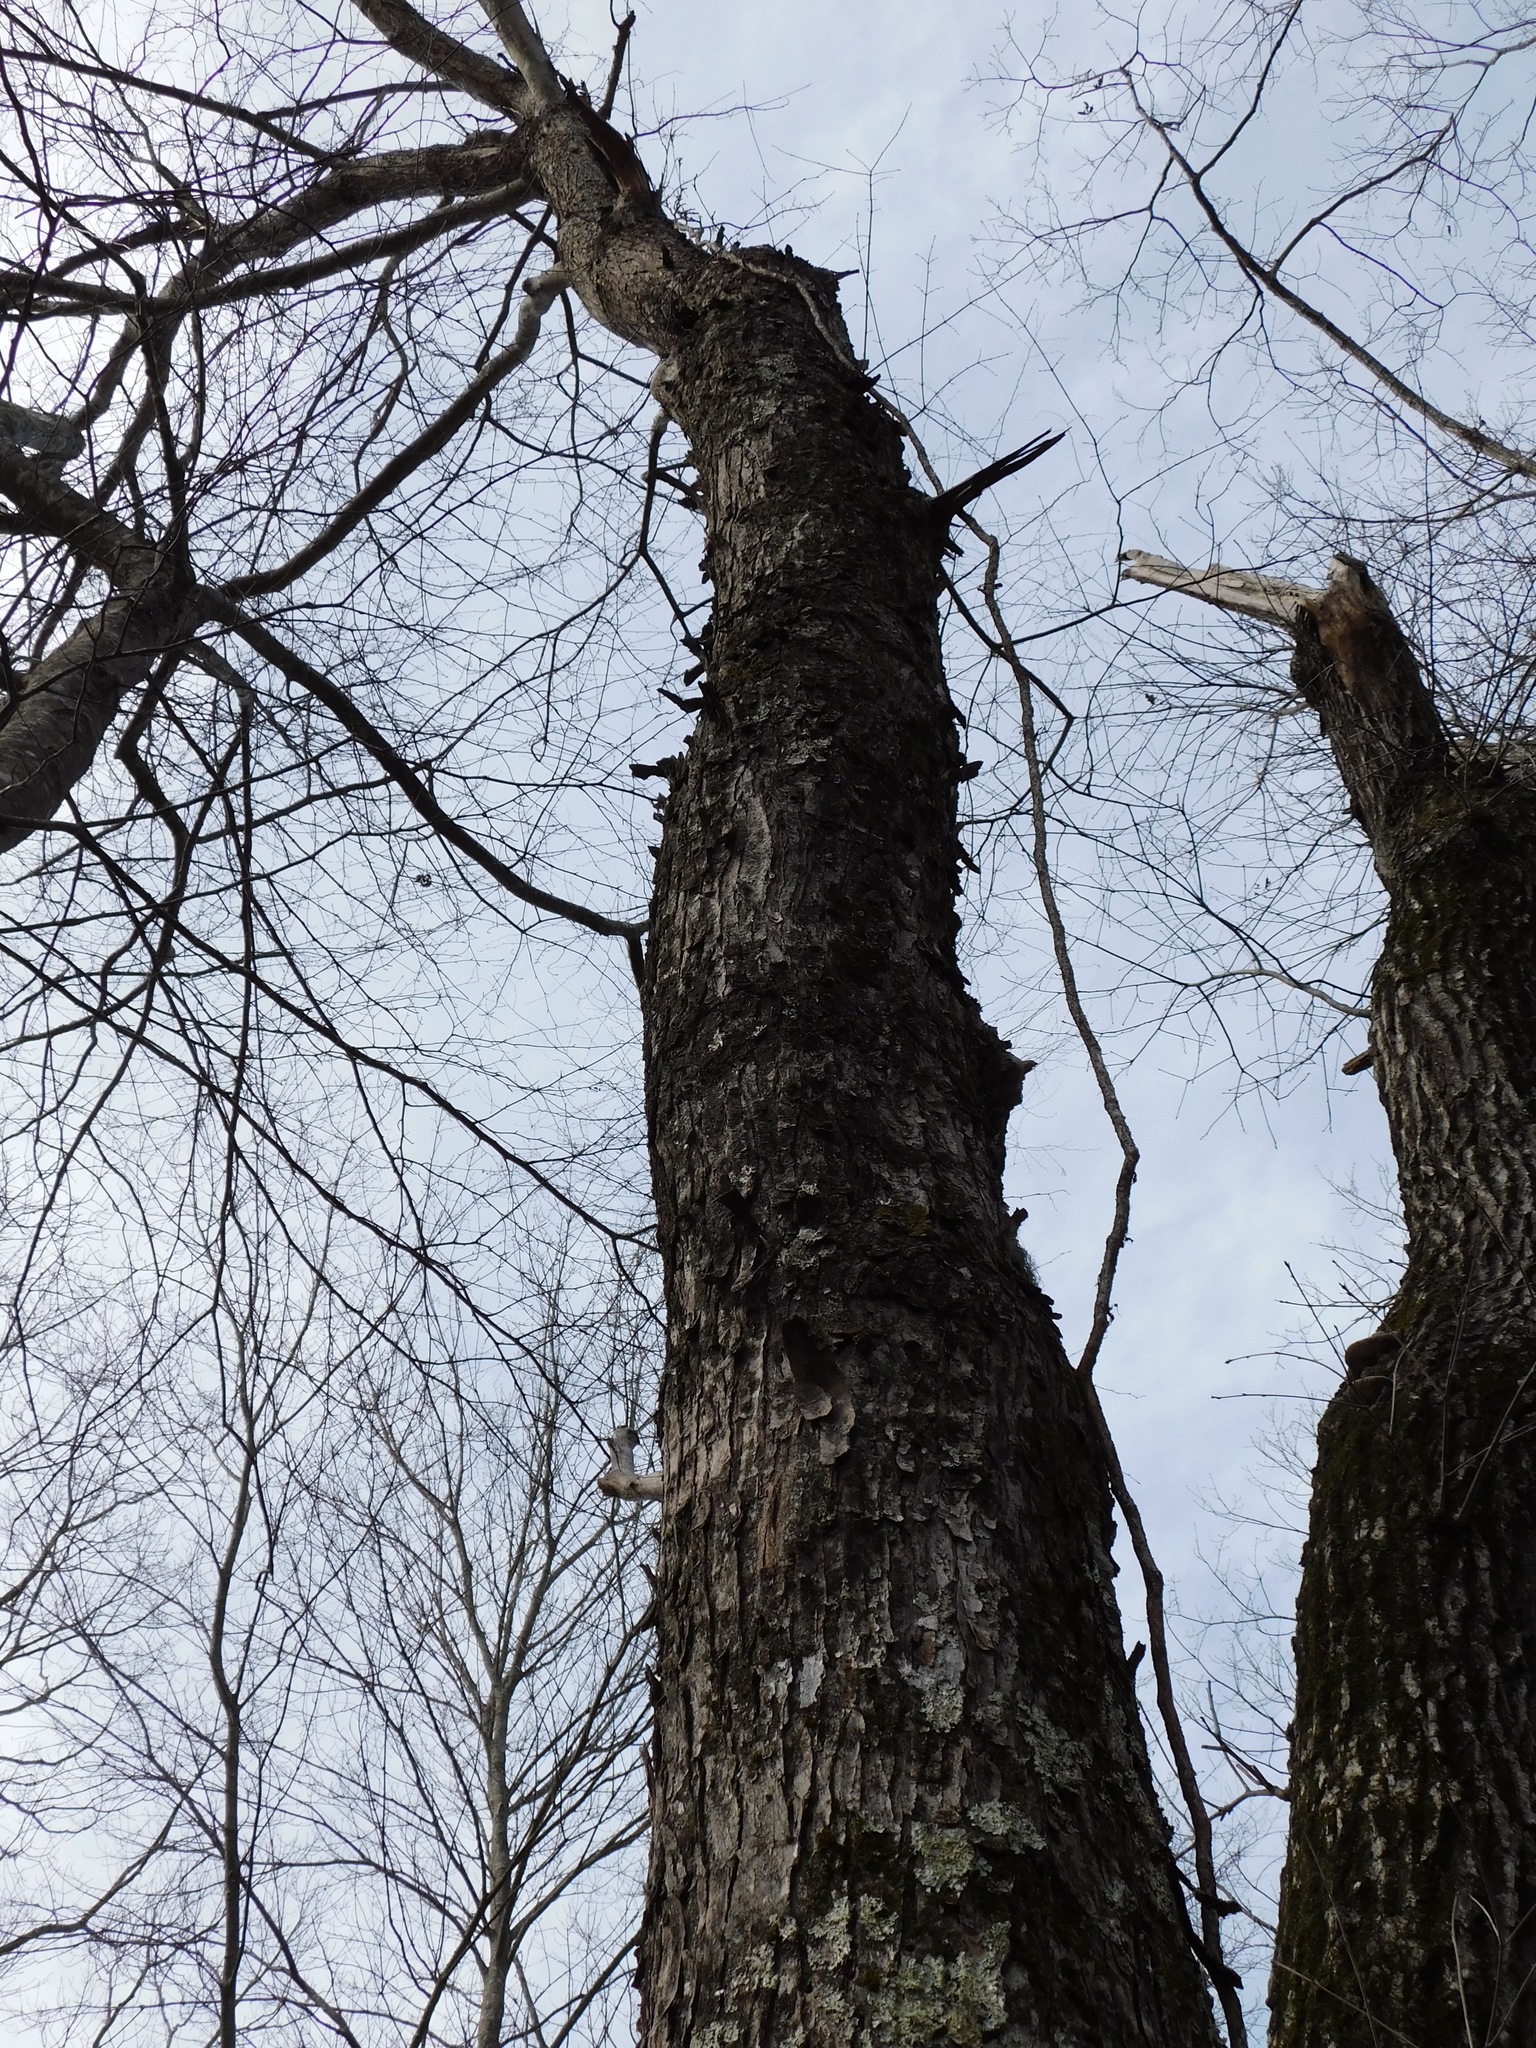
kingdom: Plantae
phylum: Tracheophyta
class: Magnoliopsida
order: Sapindales
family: Sapindaceae
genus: Acer
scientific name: Acer rubrum
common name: Red maple
